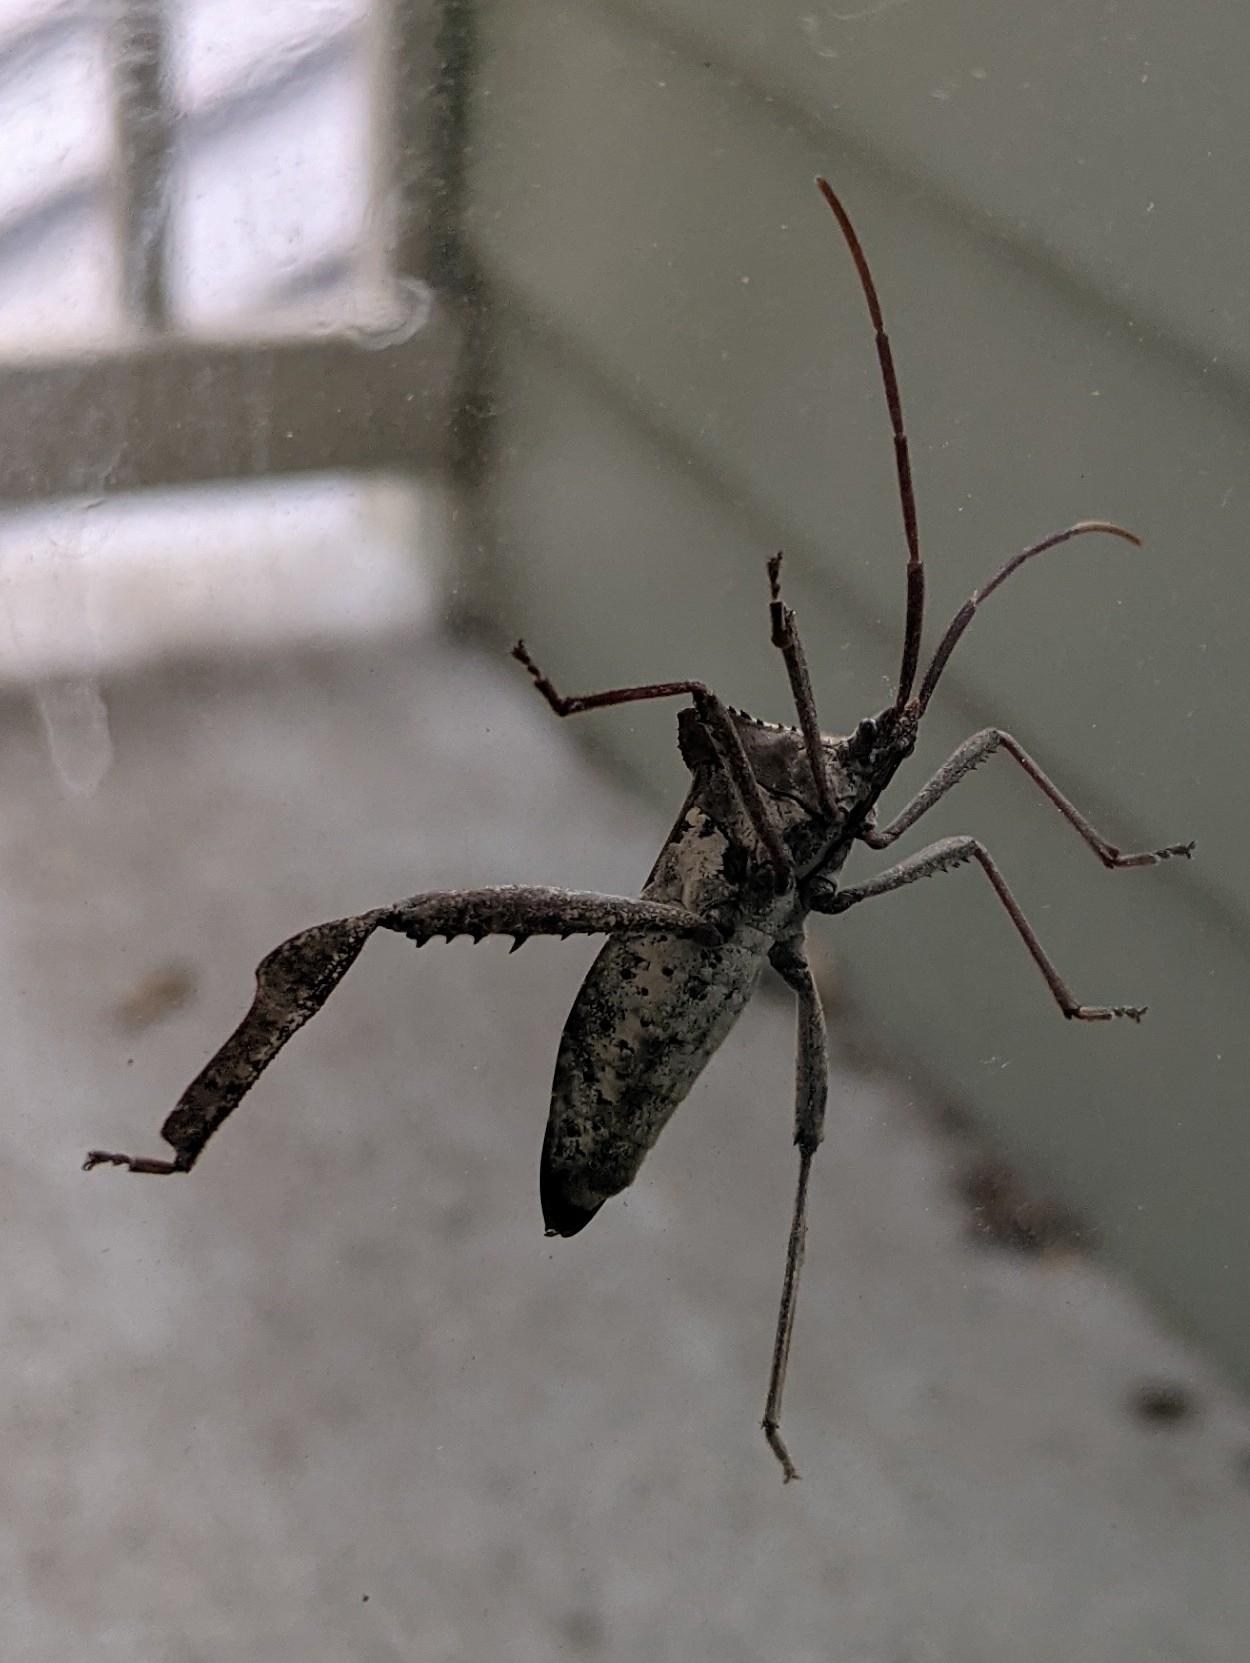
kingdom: Animalia
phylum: Arthropoda
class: Insecta
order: Hemiptera
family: Coreidae
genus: Acanthocephala
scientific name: Acanthocephala declivis
